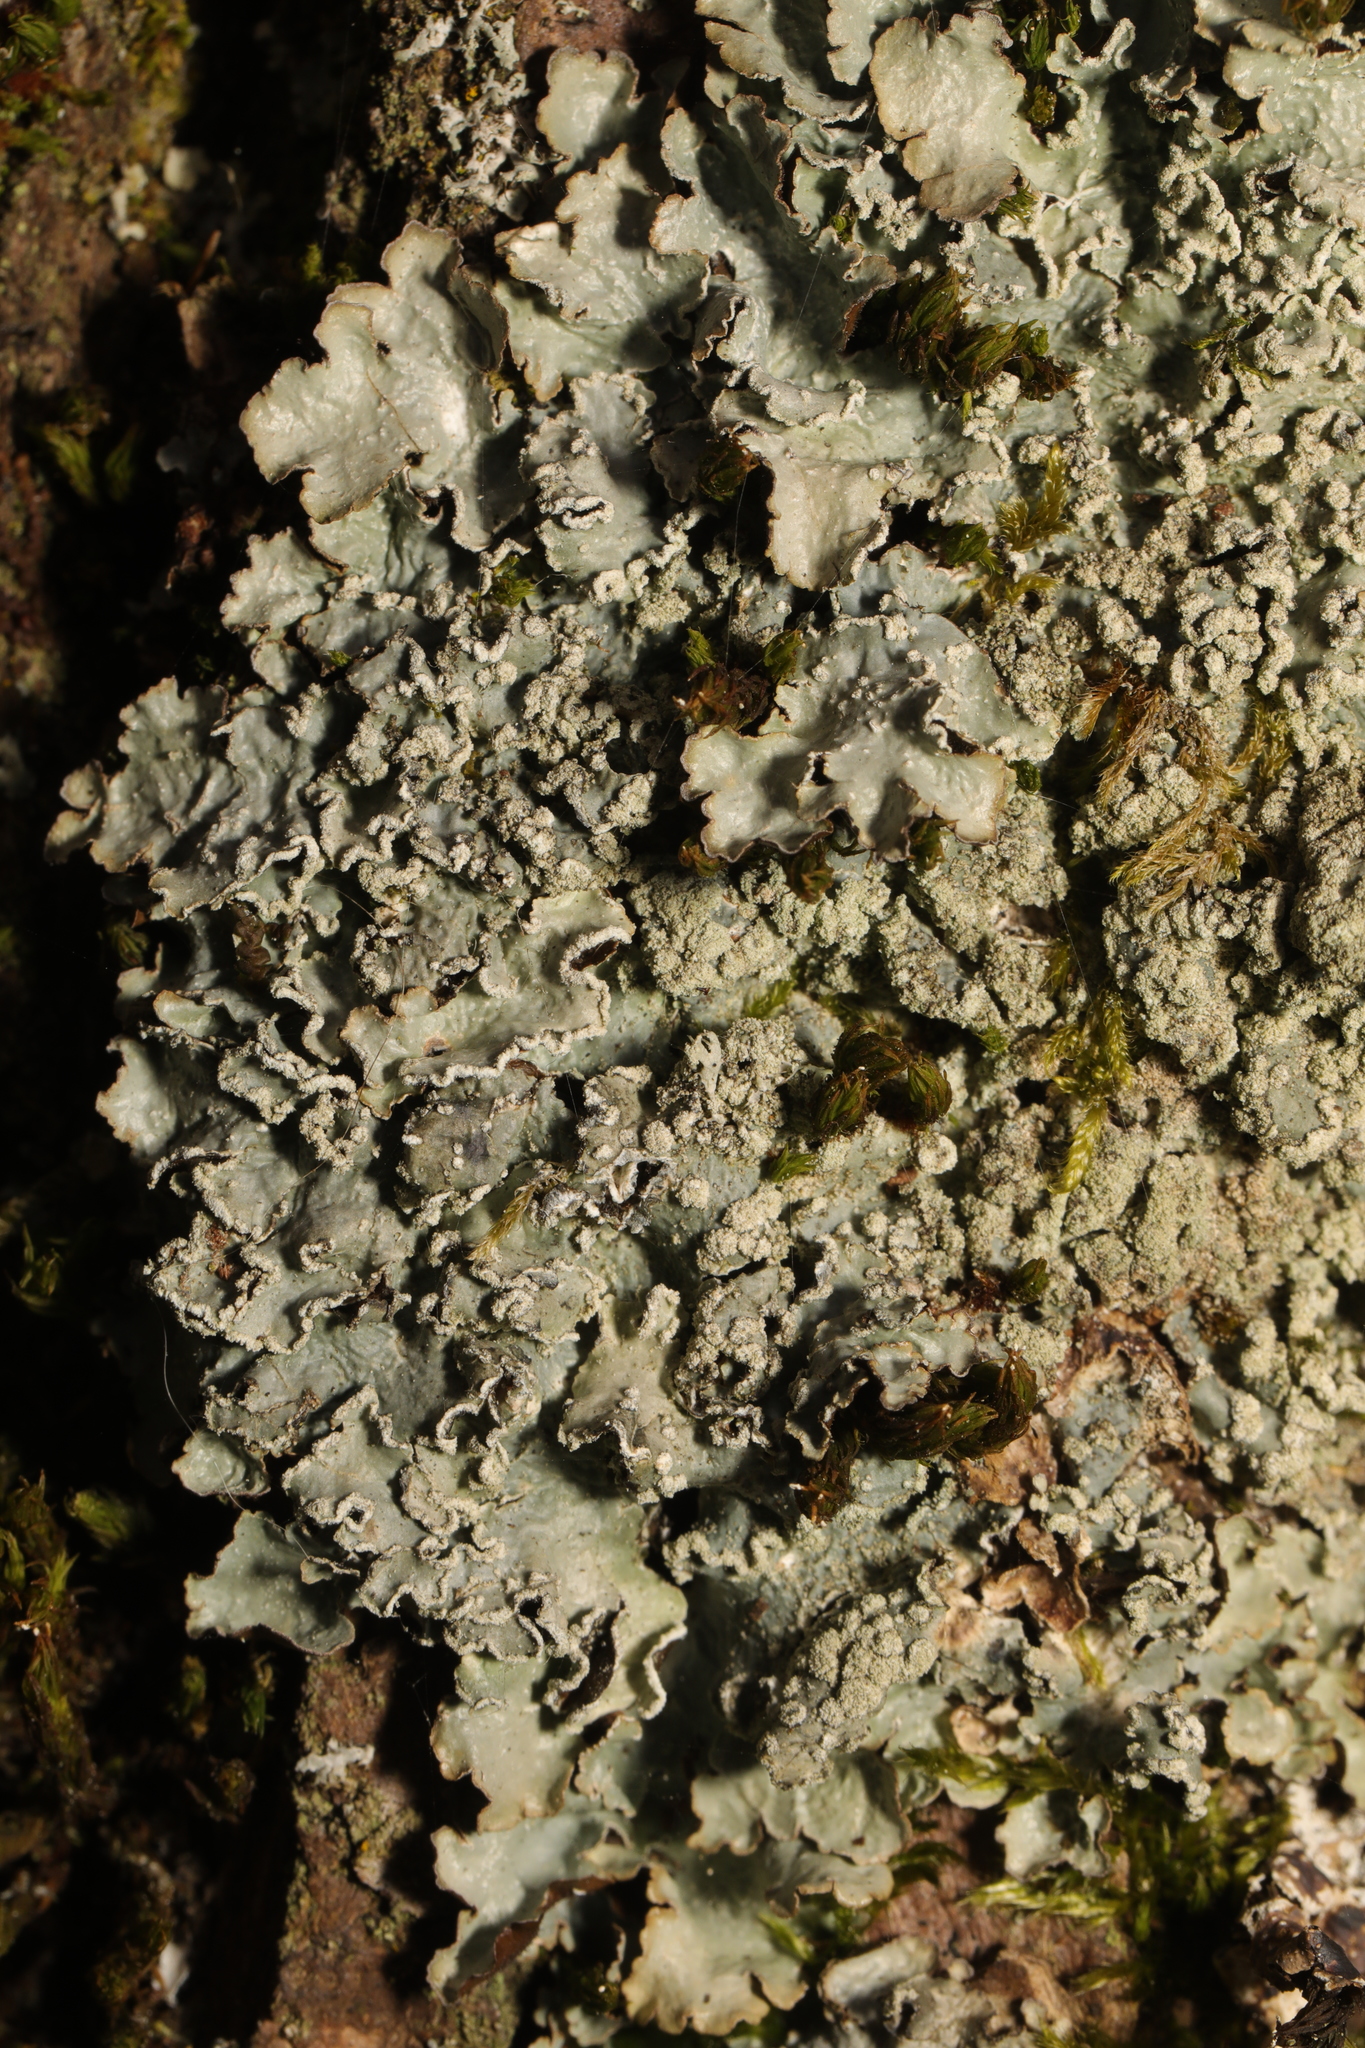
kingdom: Fungi
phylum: Ascomycota
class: Lecanoromycetes
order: Lecanorales
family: Parmeliaceae
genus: Punctelia
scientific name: Punctelia jeckeri
